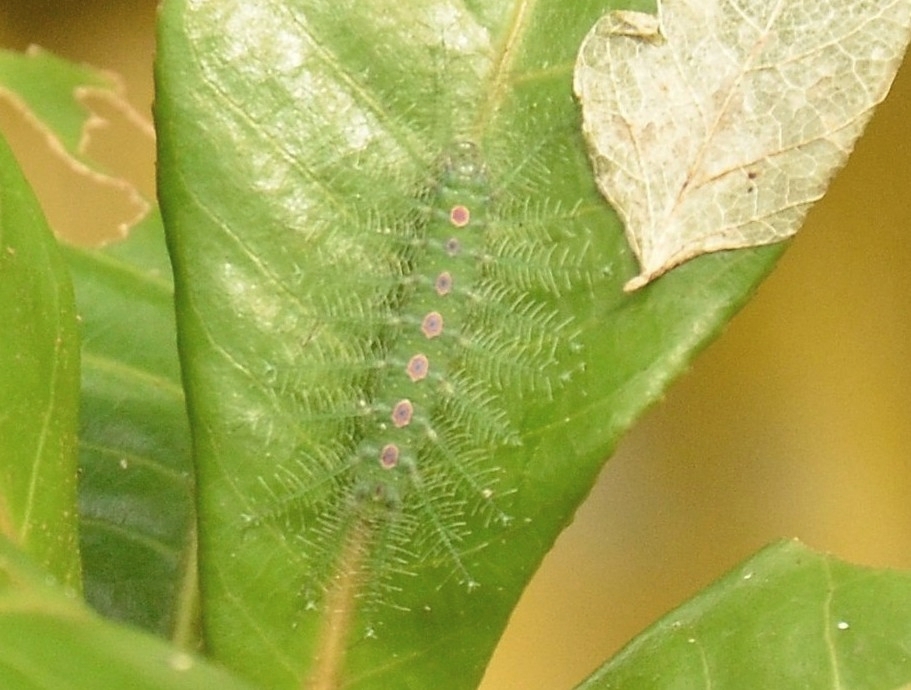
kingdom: Animalia
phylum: Arthropoda
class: Insecta
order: Lepidoptera
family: Nymphalidae
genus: Tanaecia
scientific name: Tanaecia lepidea
